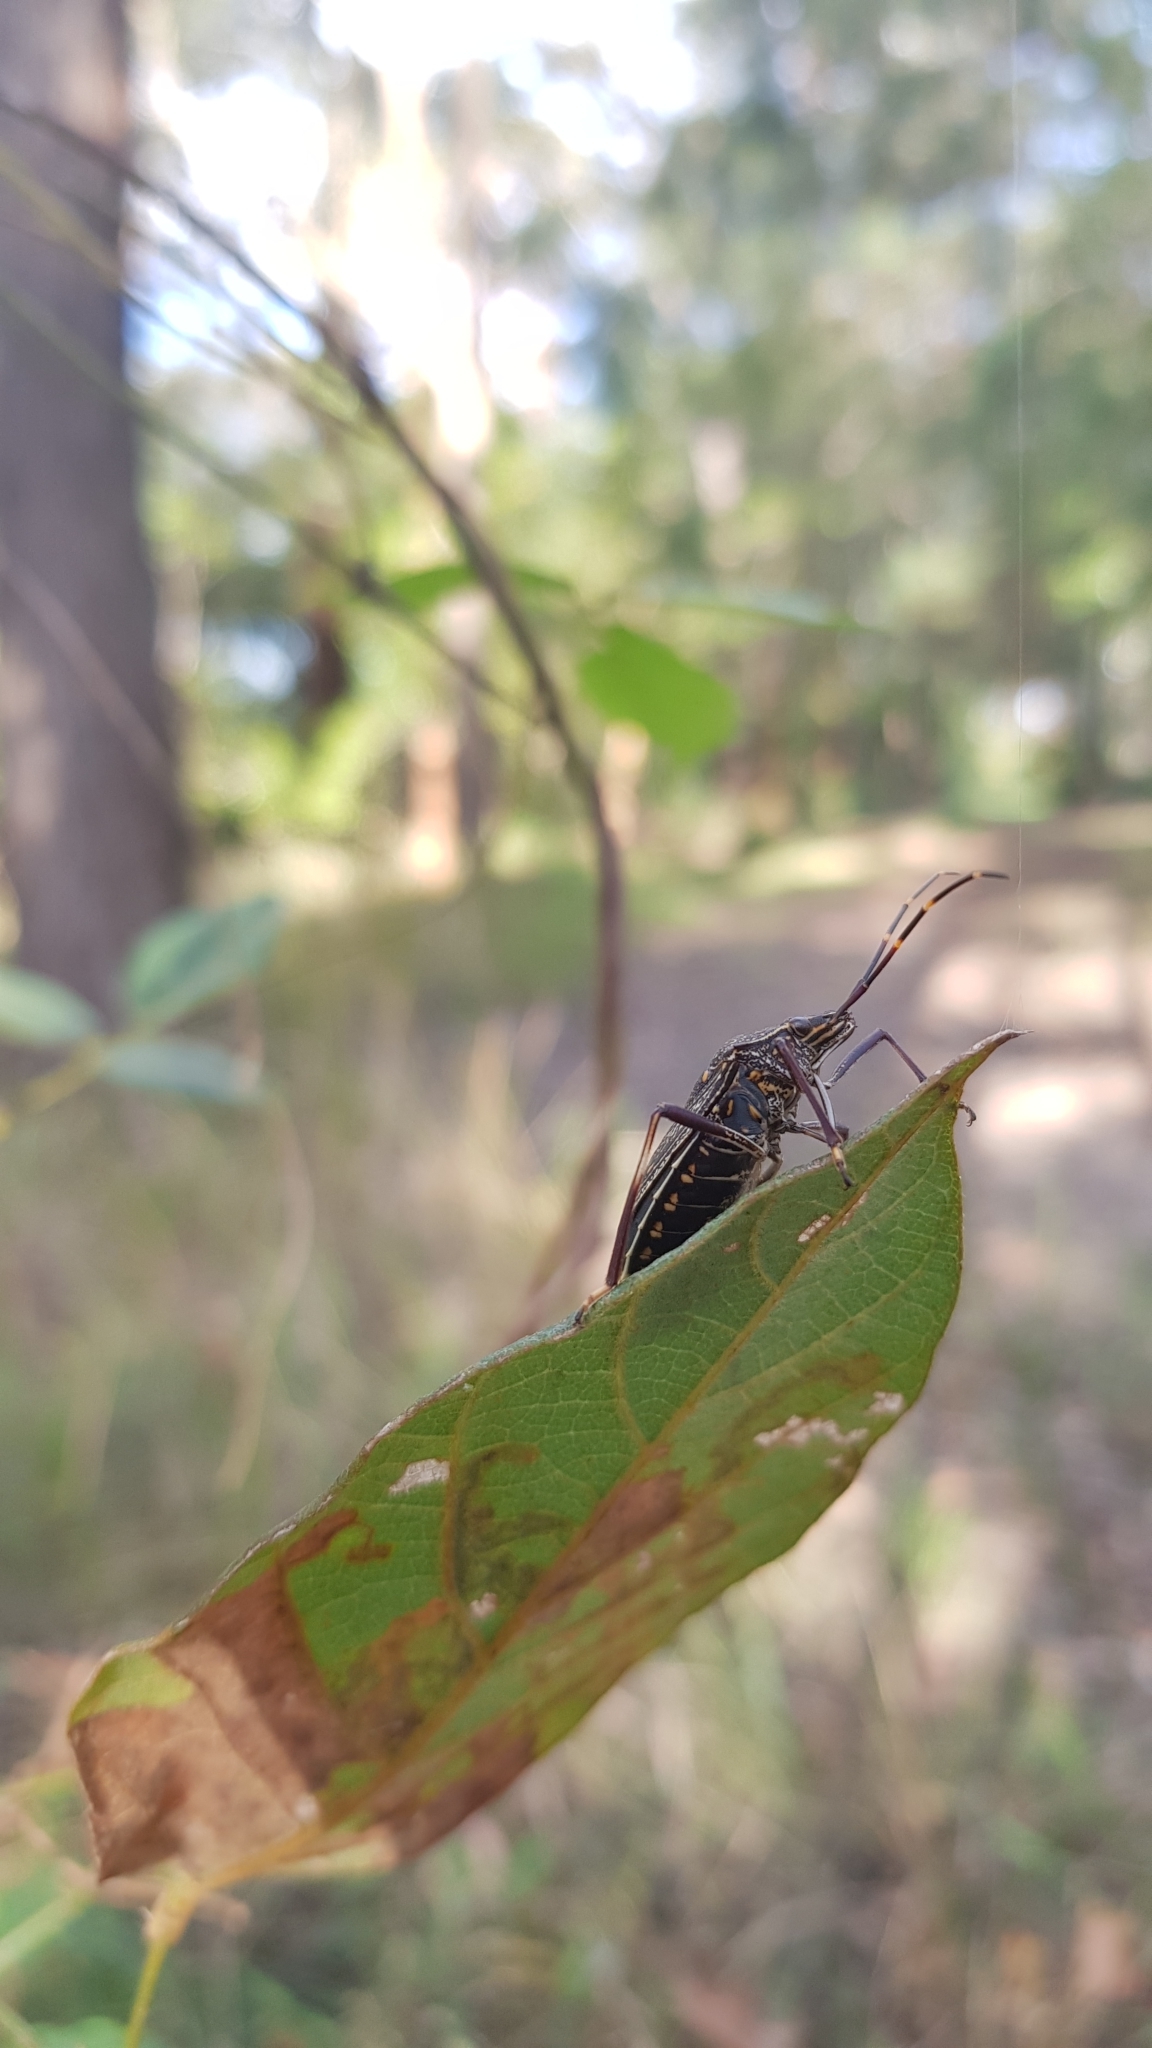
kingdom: Animalia
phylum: Arthropoda
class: Insecta
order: Hemiptera
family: Pentatomidae
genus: Poecilometis
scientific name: Poecilometis
